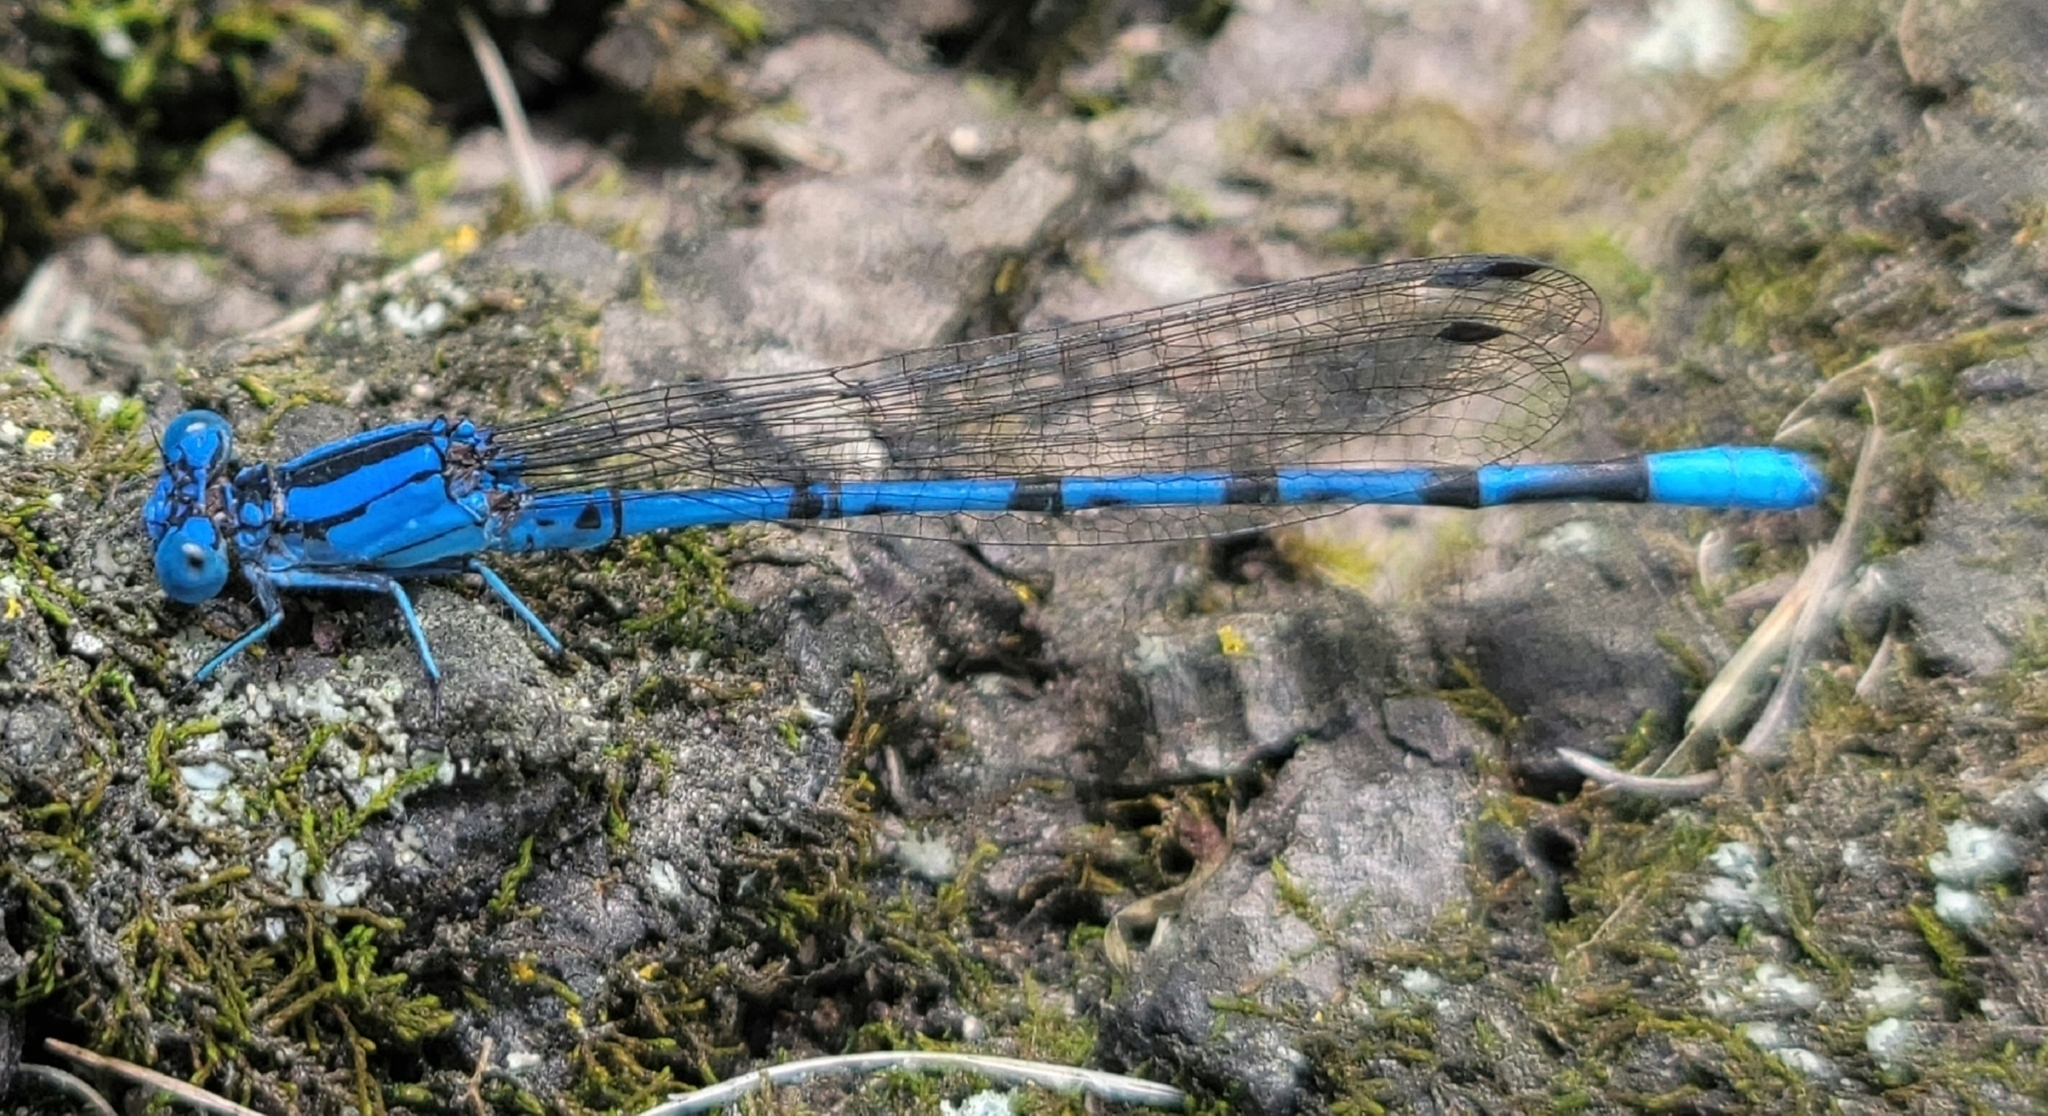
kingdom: Animalia
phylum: Arthropoda
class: Insecta
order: Odonata
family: Coenagrionidae
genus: Argia
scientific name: Argia funebris
